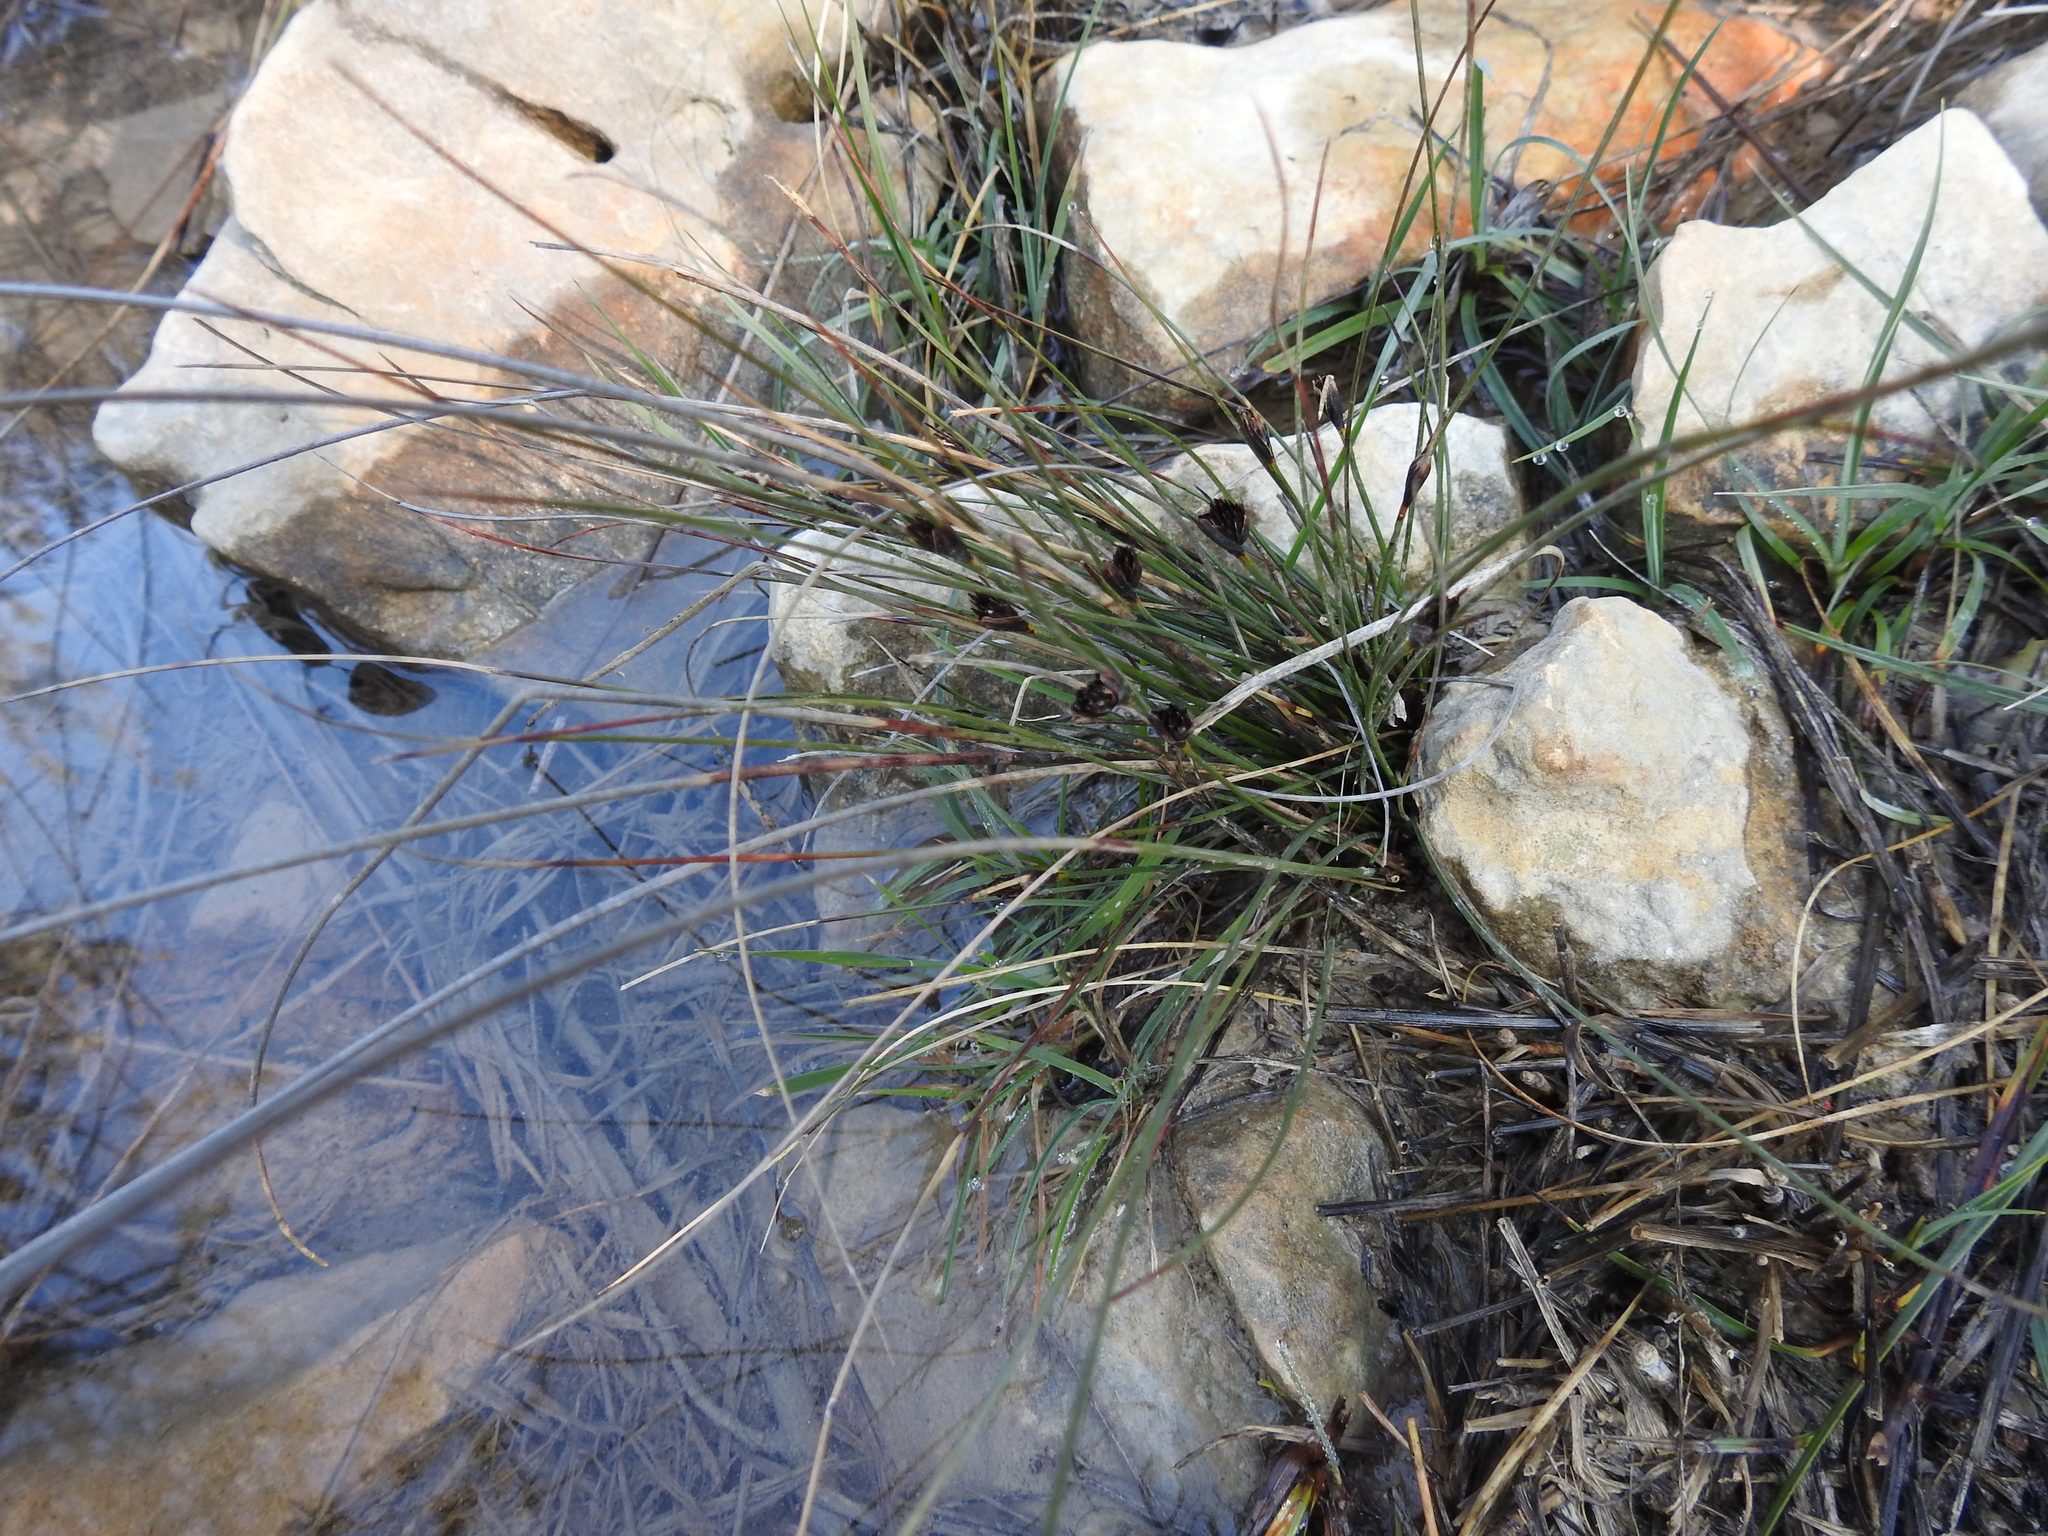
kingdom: Plantae
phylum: Tracheophyta
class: Liliopsida
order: Poales
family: Cyperaceae
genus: Schoenus
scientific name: Schoenus nigricans
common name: Black bog-rush
